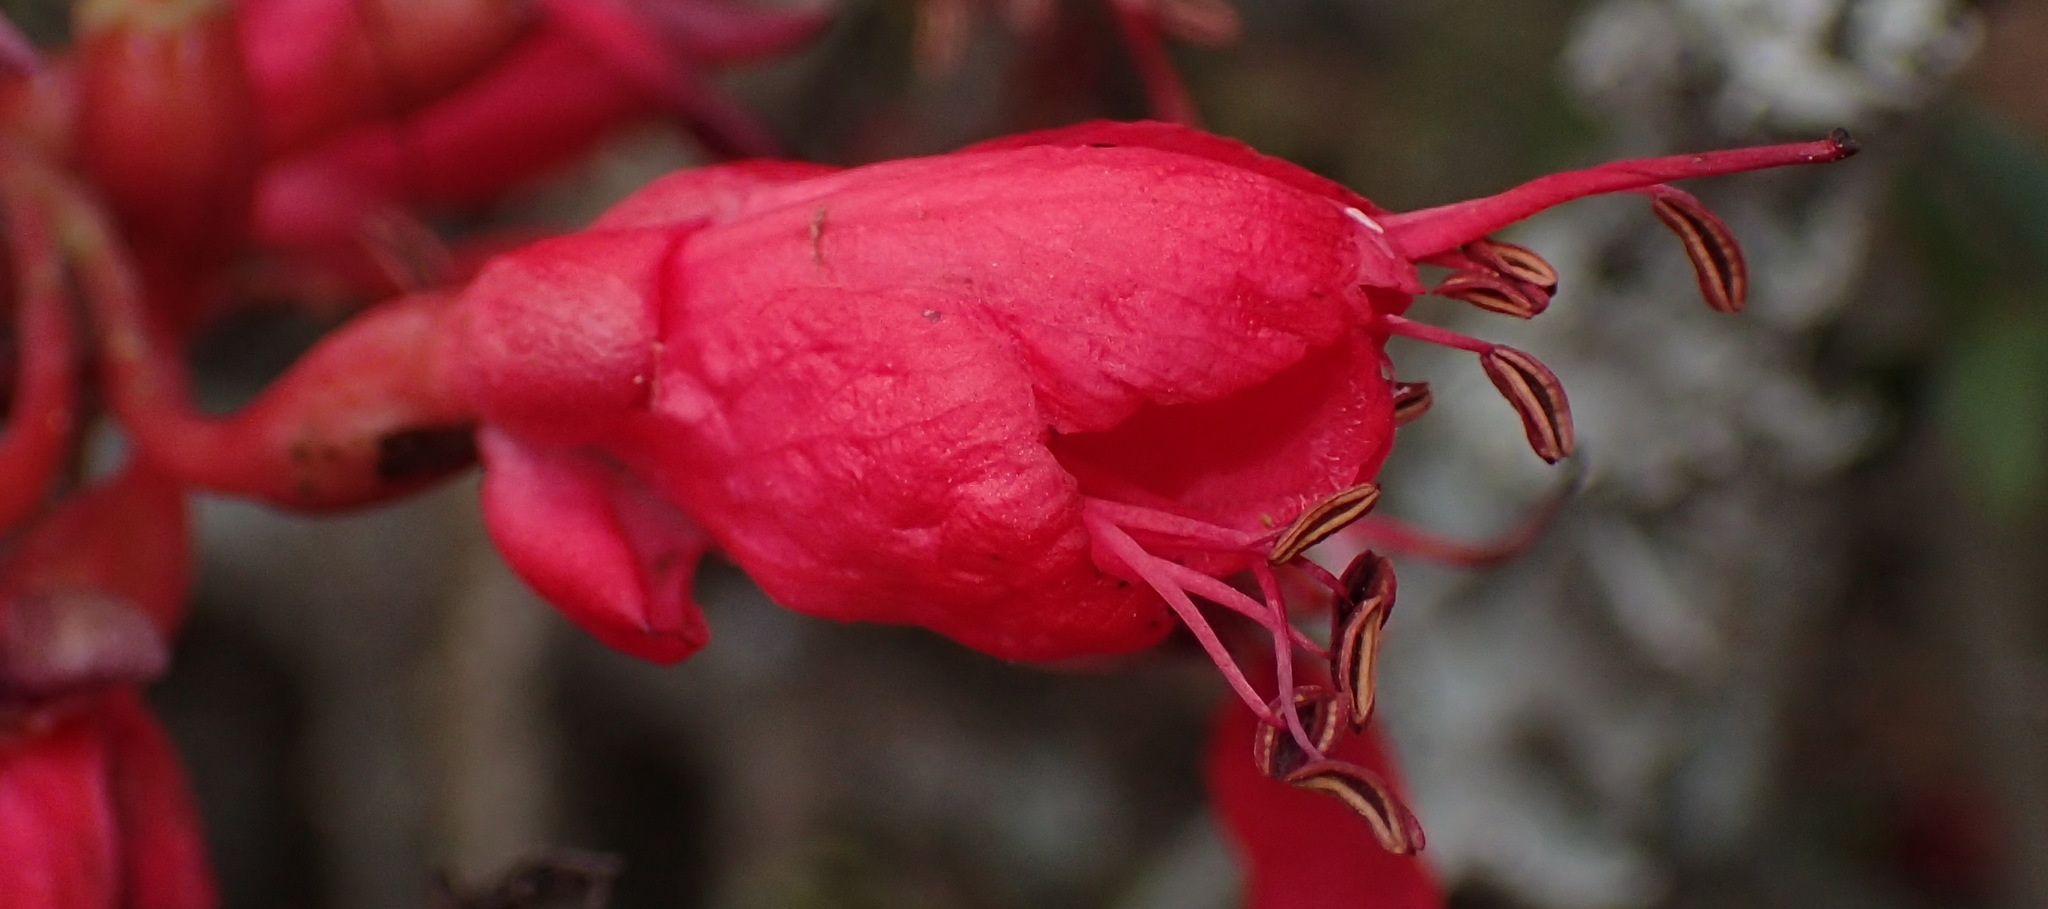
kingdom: Plantae
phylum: Tracheophyta
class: Magnoliopsida
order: Fabales
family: Fabaceae
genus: Schotia
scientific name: Schotia afra
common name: Hottentot's bean
